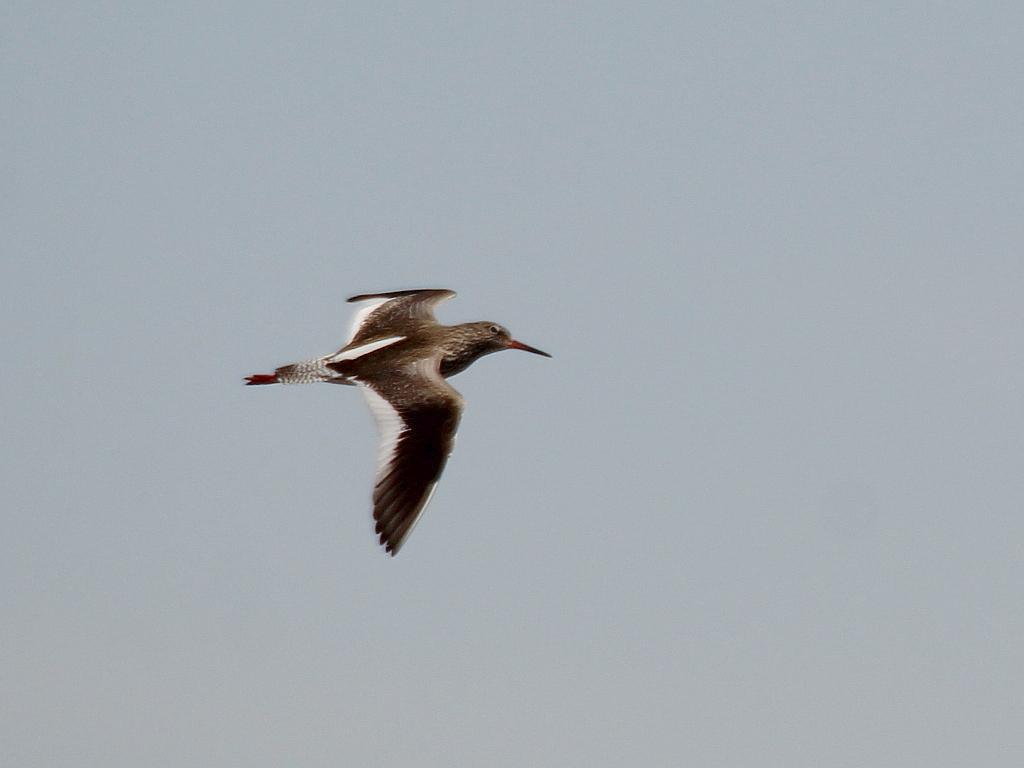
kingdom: Animalia
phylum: Chordata
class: Aves
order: Charadriiformes
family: Scolopacidae
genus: Tringa
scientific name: Tringa totanus
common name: Common redshank
